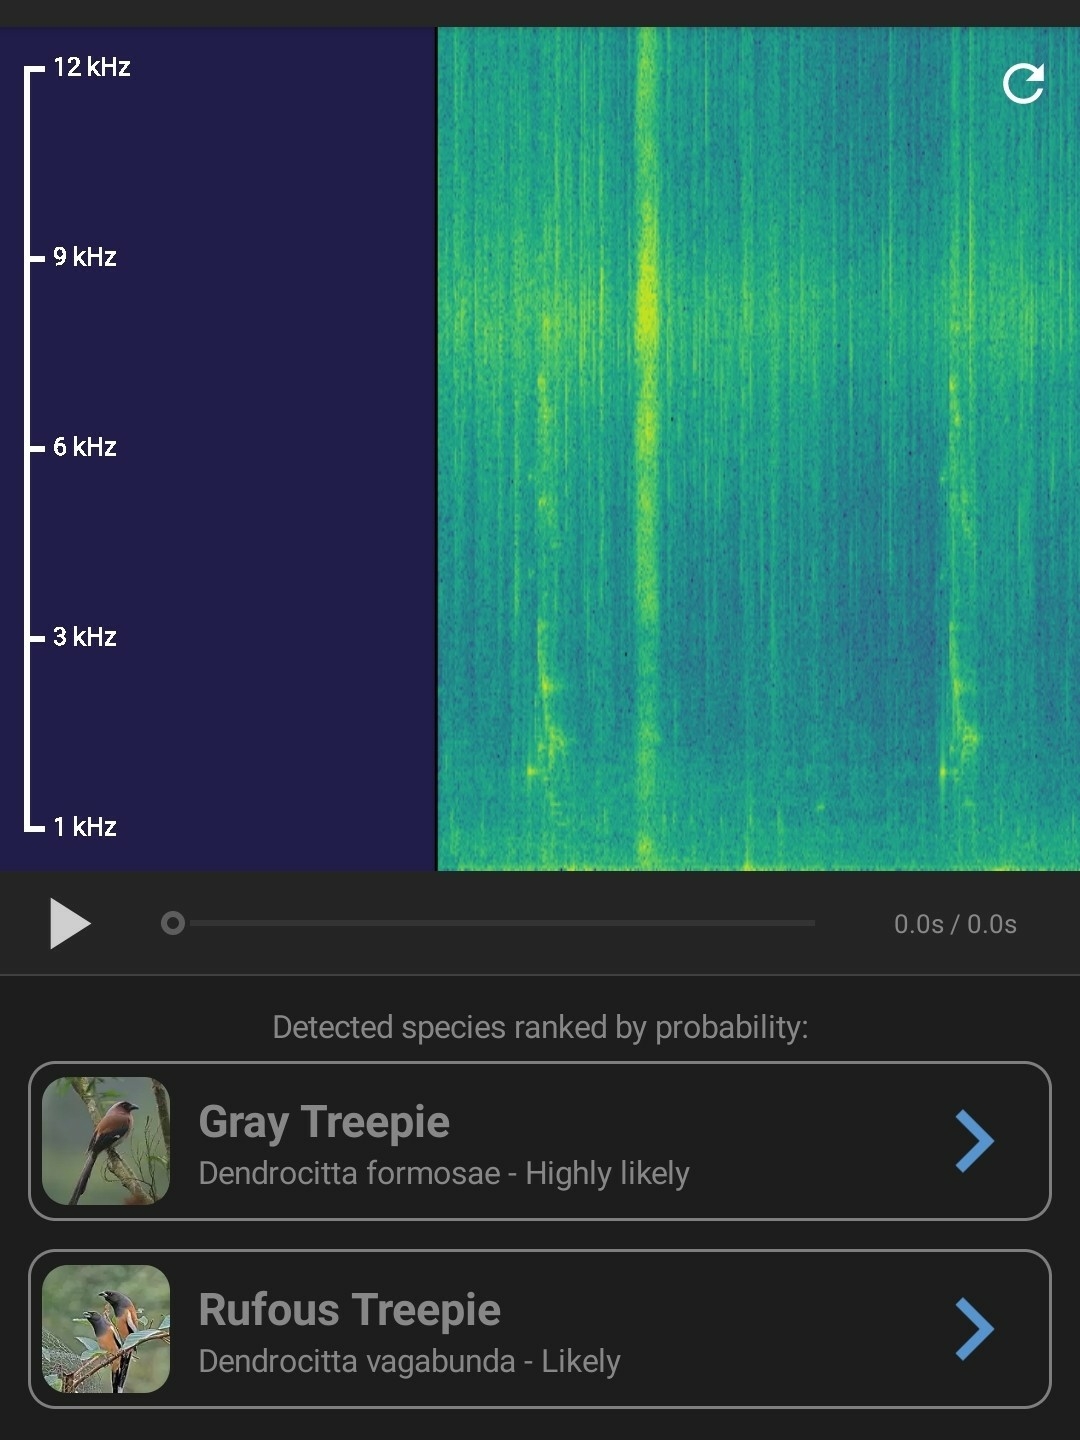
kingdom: Animalia
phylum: Chordata
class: Aves
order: Passeriformes
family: Corvidae
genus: Dendrocitta
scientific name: Dendrocitta formosae
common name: Grey treepie
